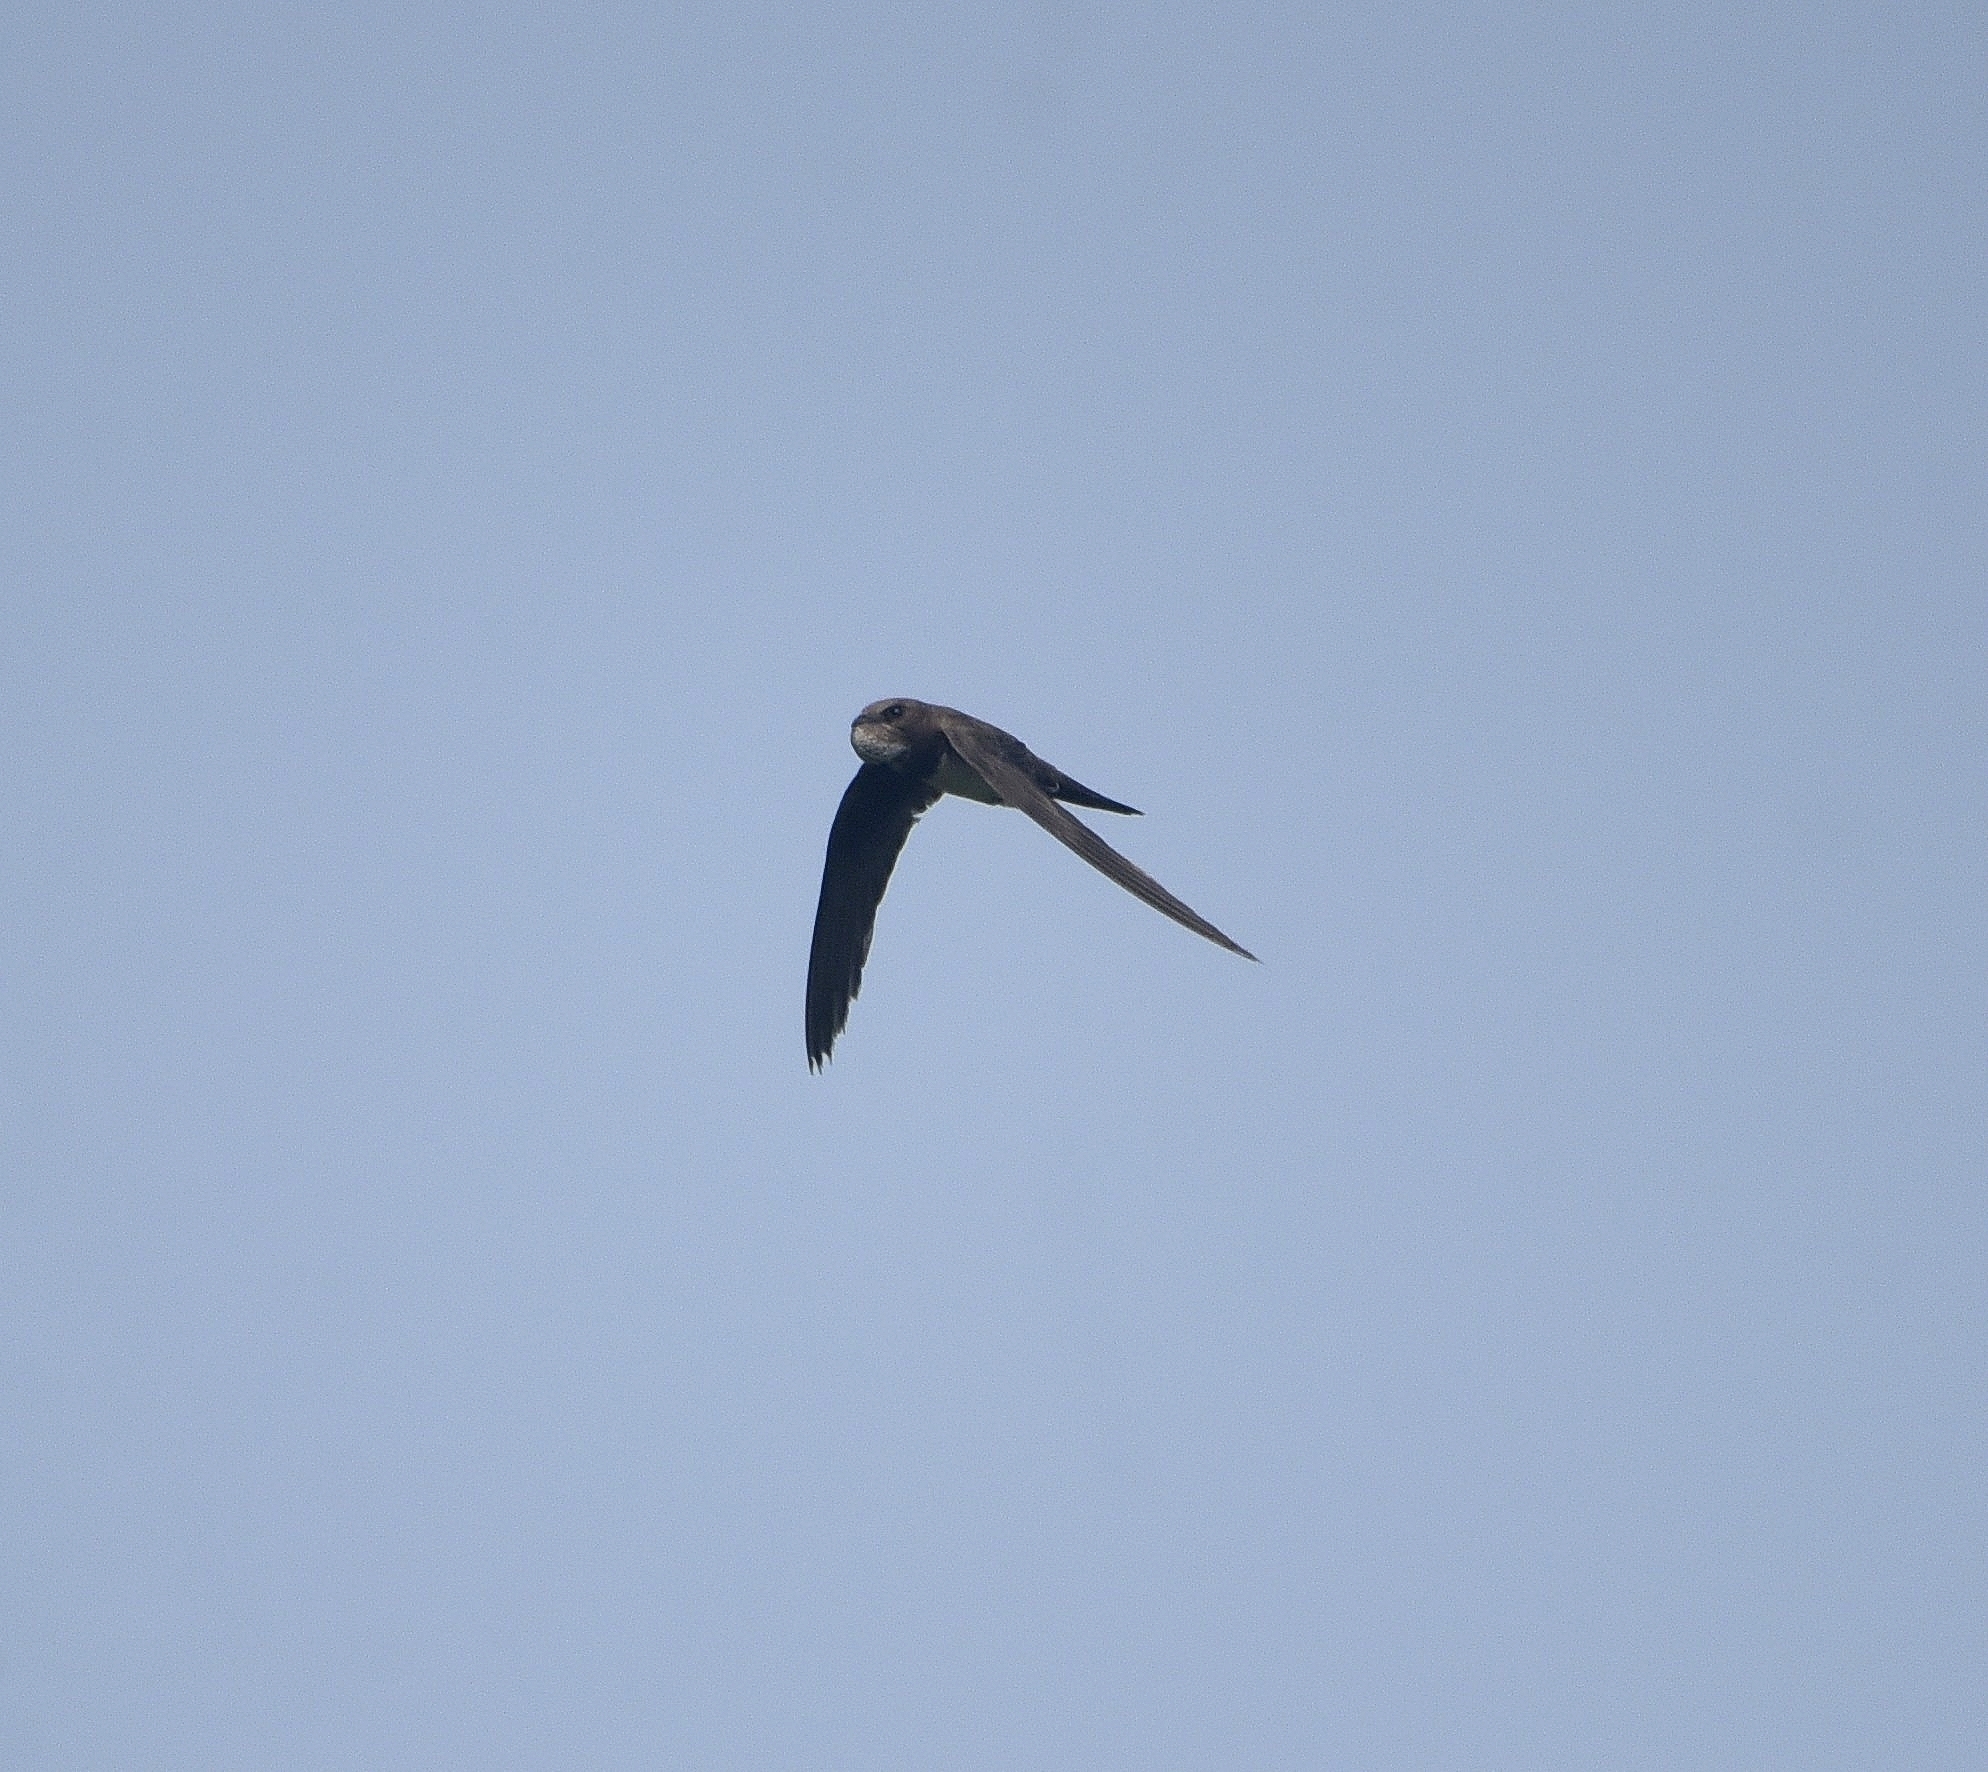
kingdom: Animalia
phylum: Chordata
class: Aves
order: Apodiformes
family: Apodidae
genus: Tachymarptis
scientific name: Tachymarptis melba
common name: Alpine swift
